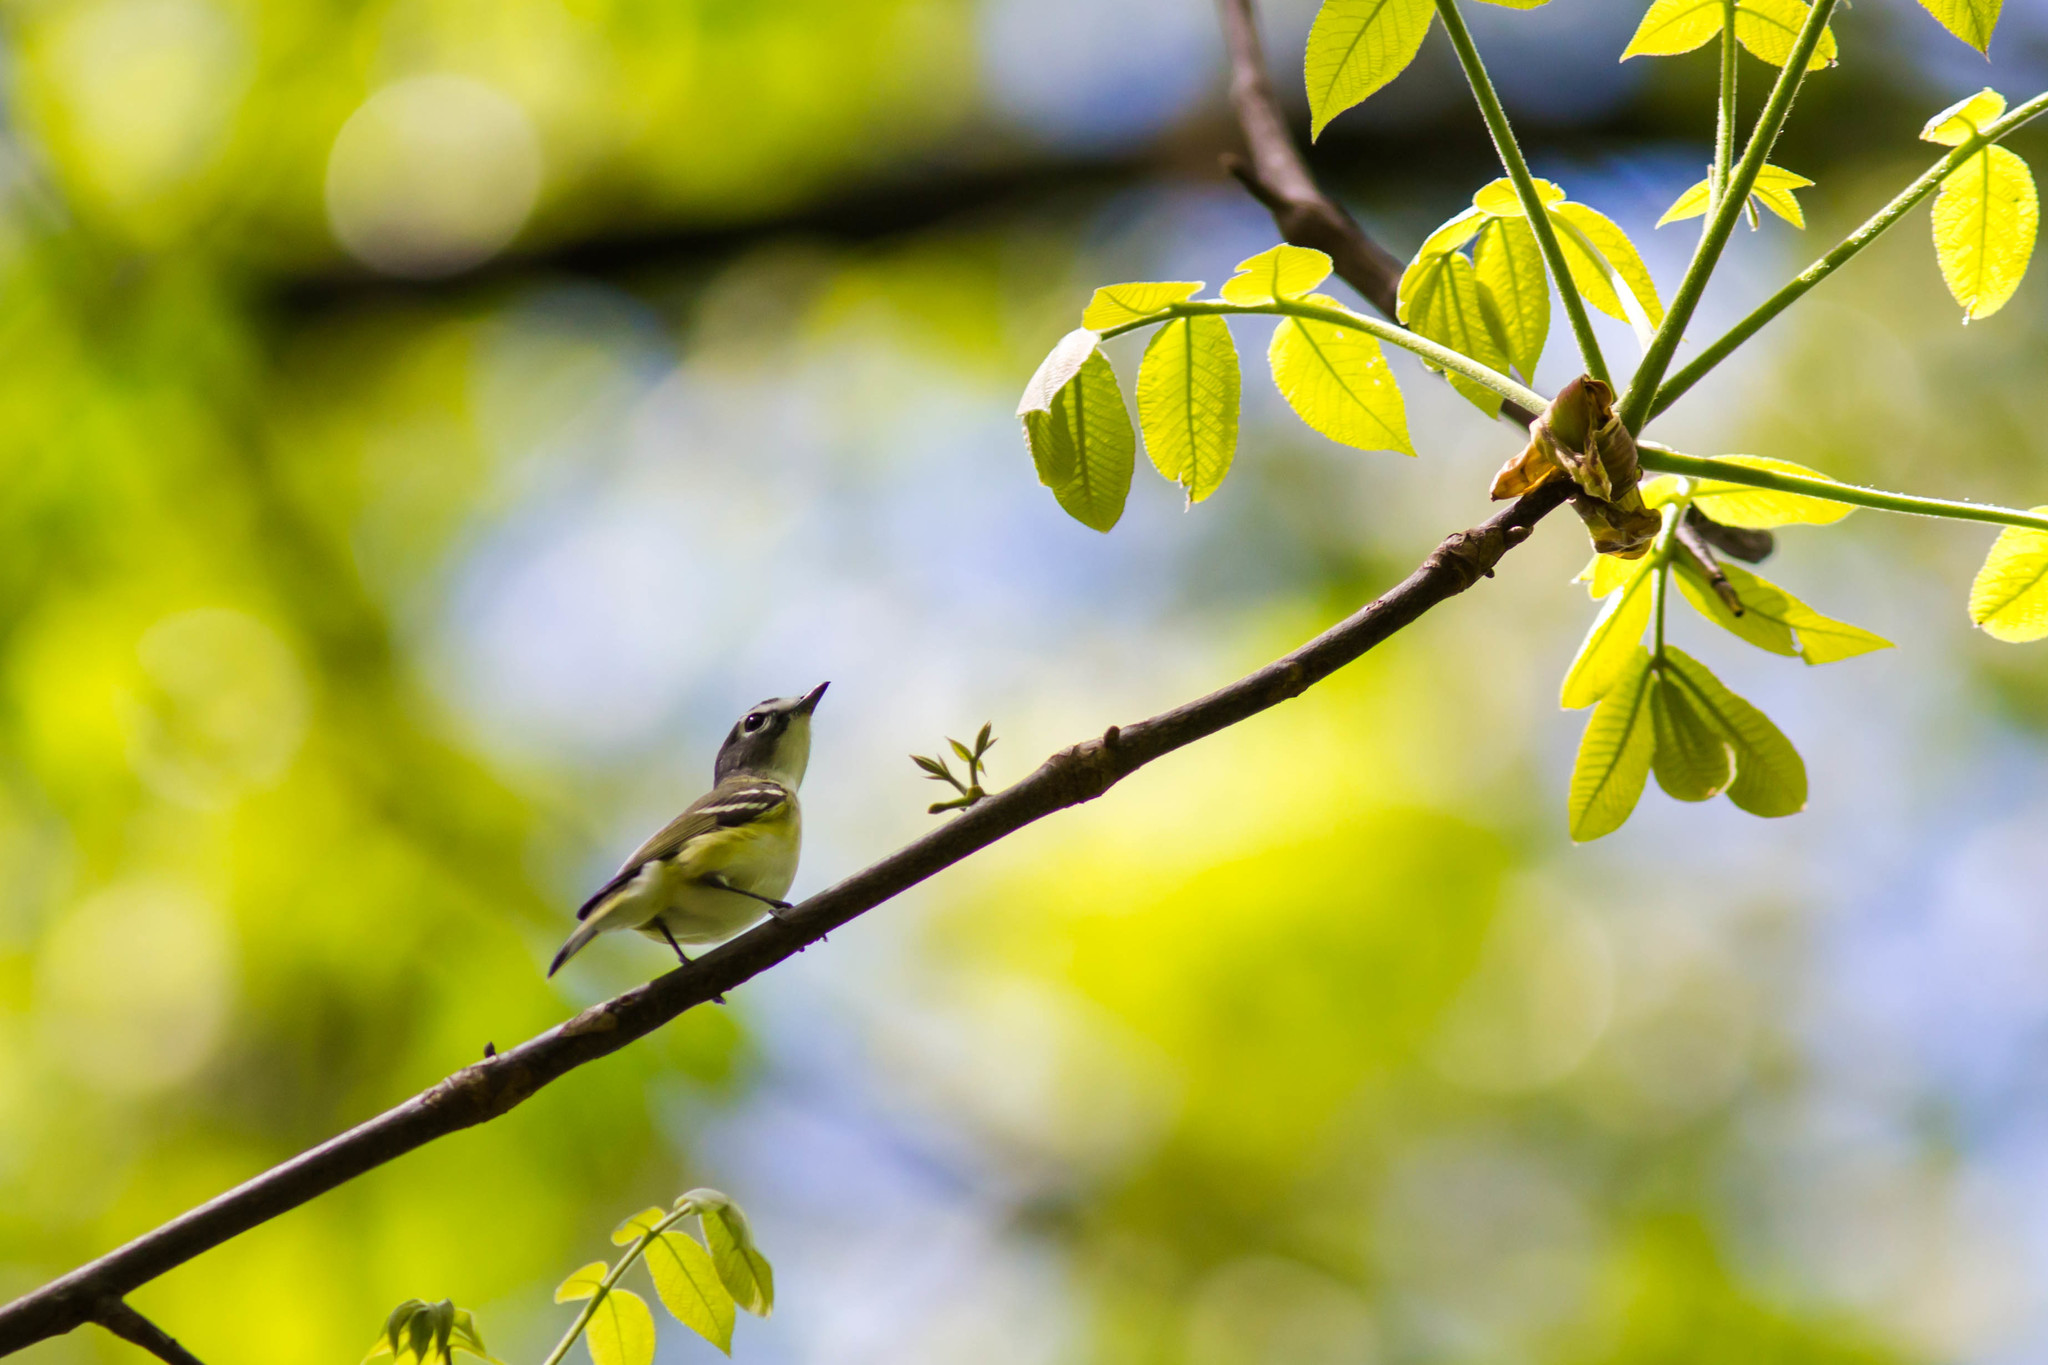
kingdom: Animalia
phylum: Chordata
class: Aves
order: Passeriformes
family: Vireonidae
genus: Vireo
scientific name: Vireo solitarius
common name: Blue-headed vireo
